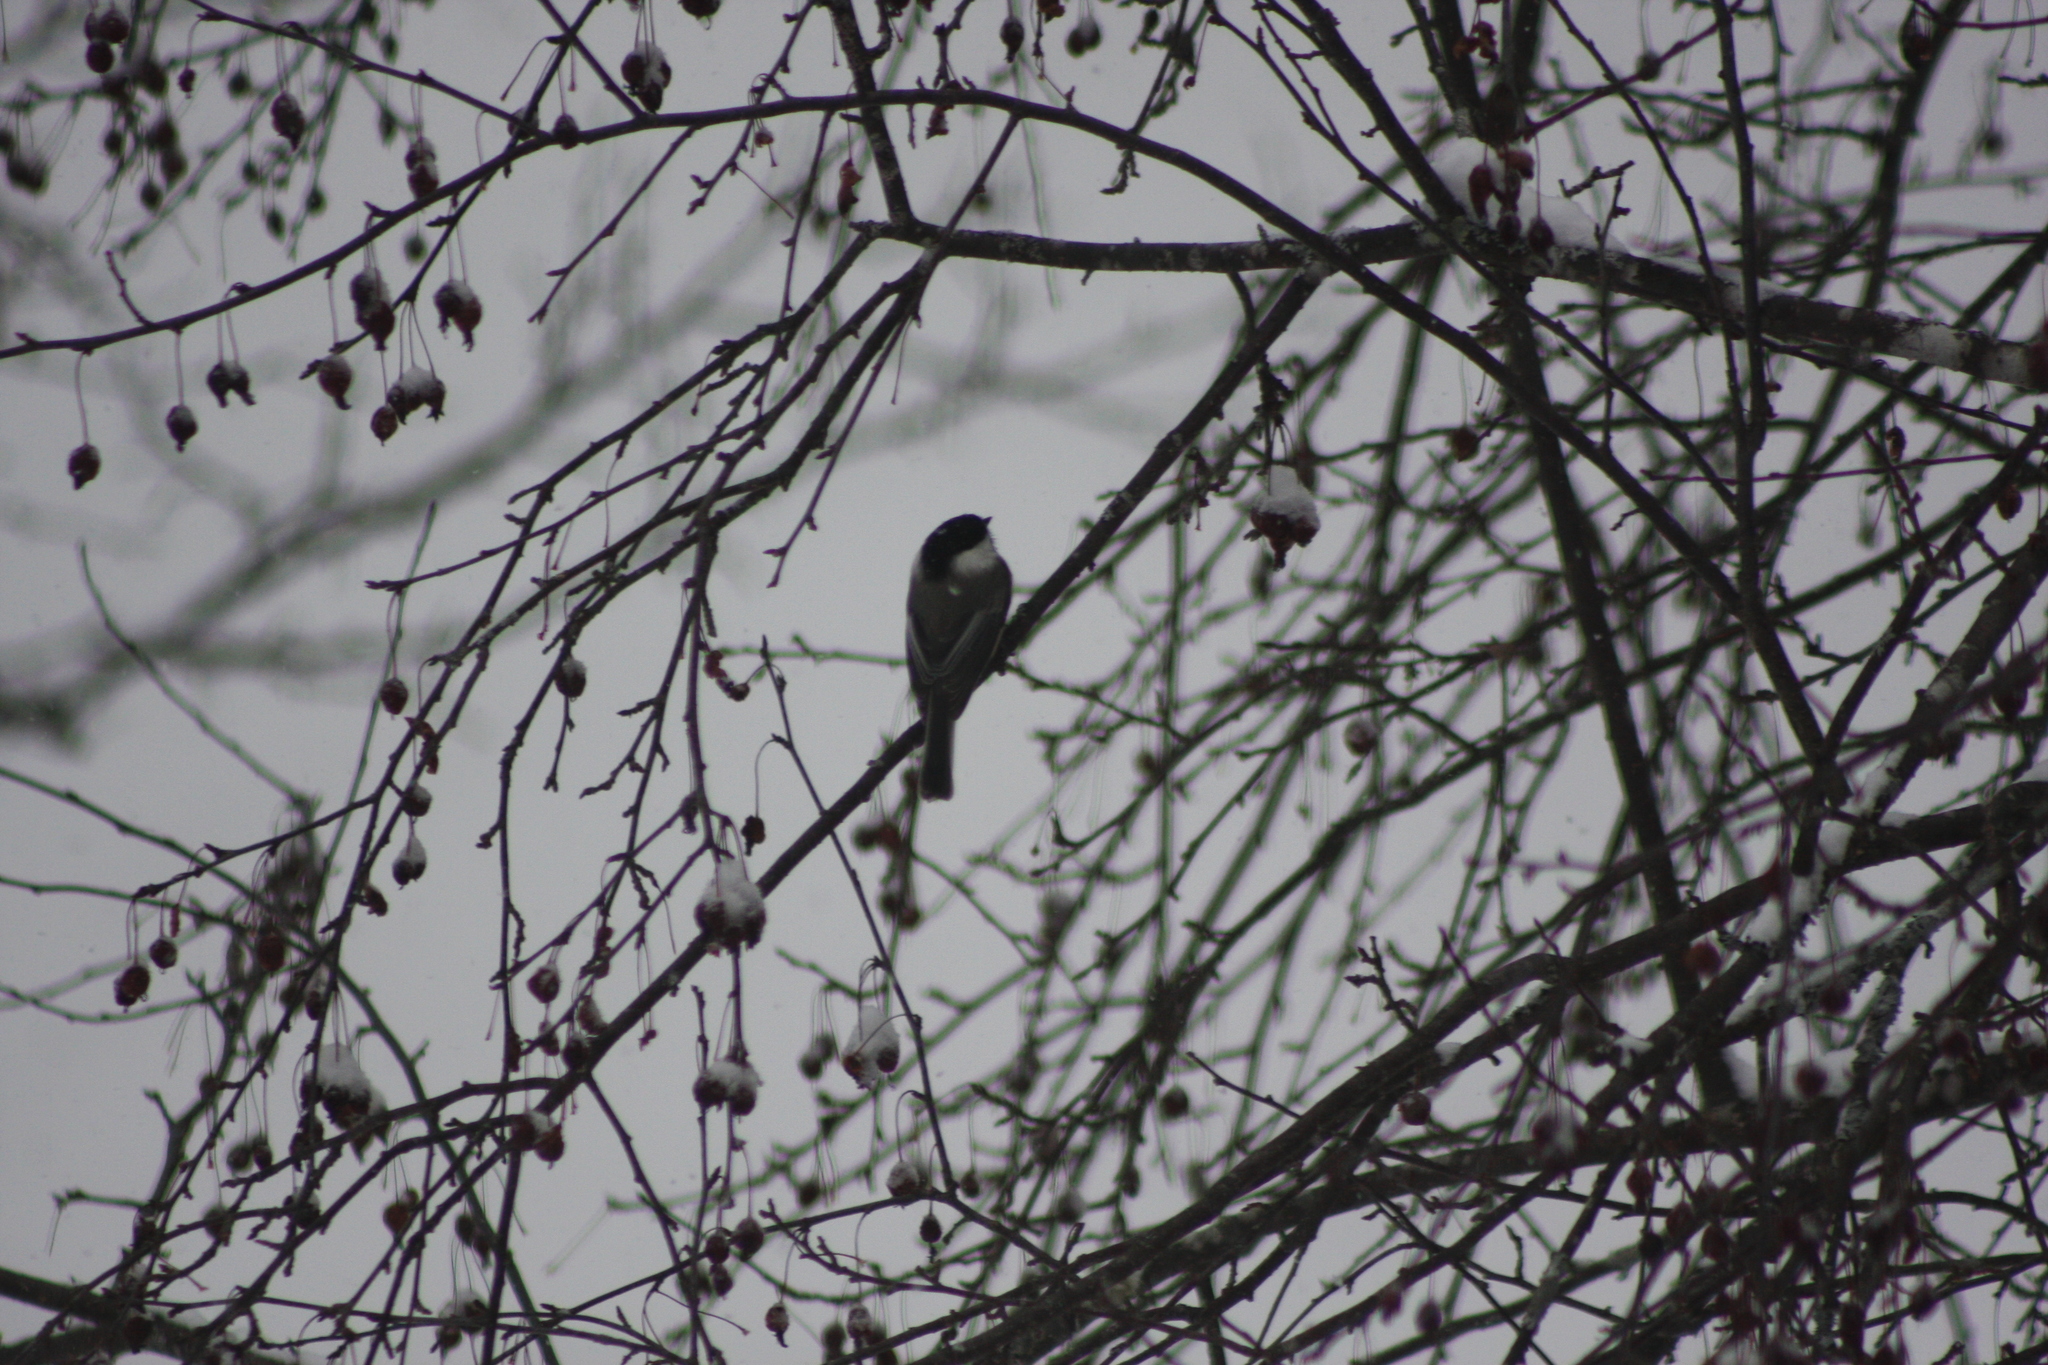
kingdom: Animalia
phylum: Chordata
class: Aves
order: Passeriformes
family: Paridae
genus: Poecile
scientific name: Poecile atricapillus
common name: Black-capped chickadee
